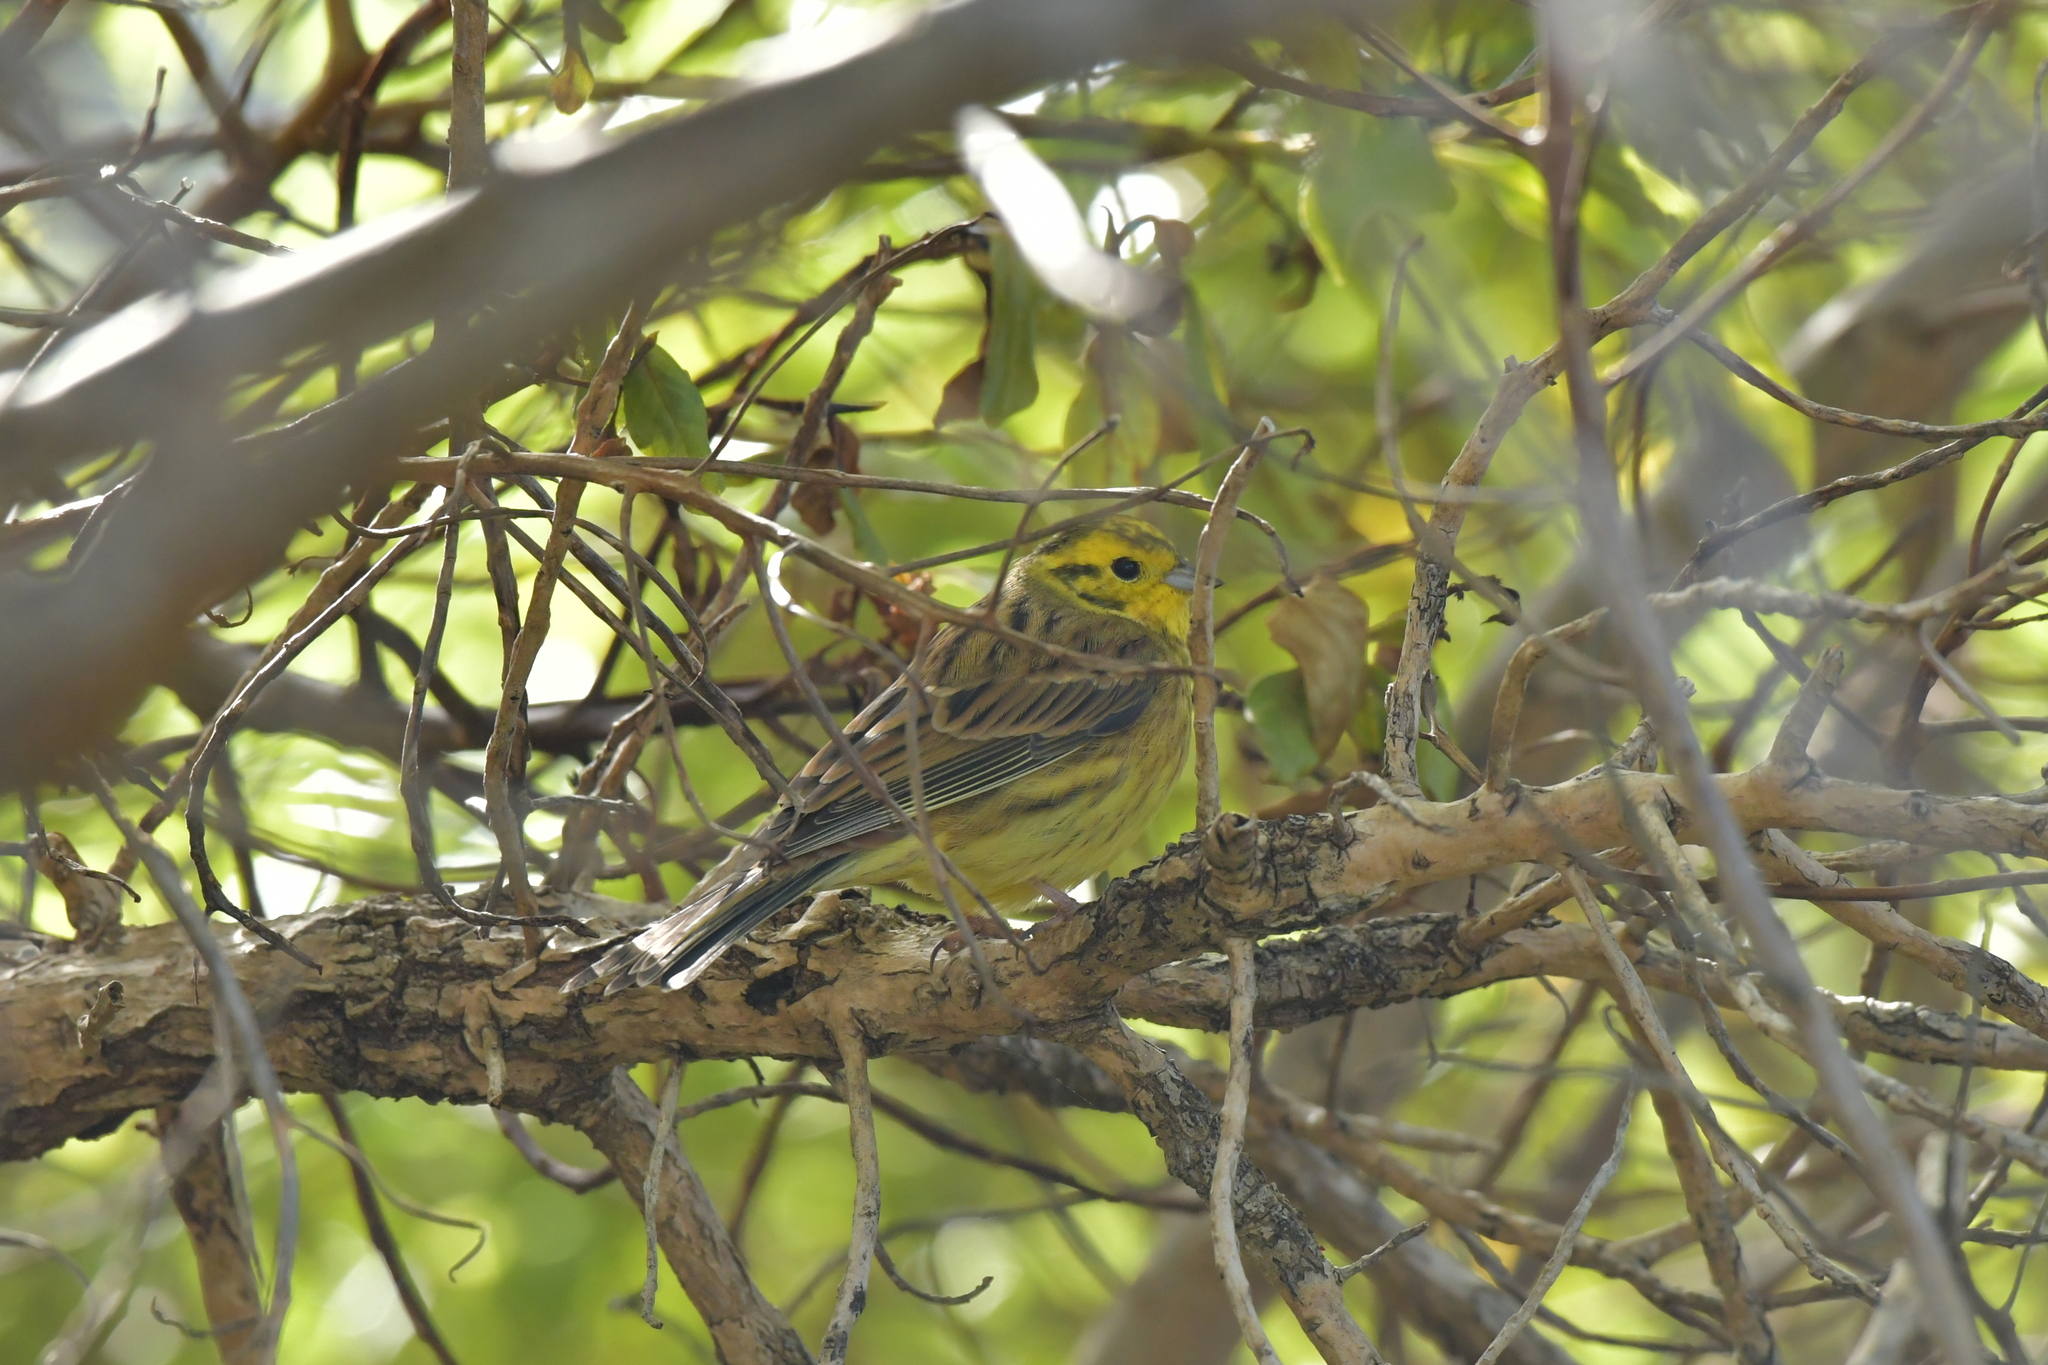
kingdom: Animalia
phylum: Chordata
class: Aves
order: Passeriformes
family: Emberizidae
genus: Emberiza
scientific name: Emberiza citrinella
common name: Yellowhammer
